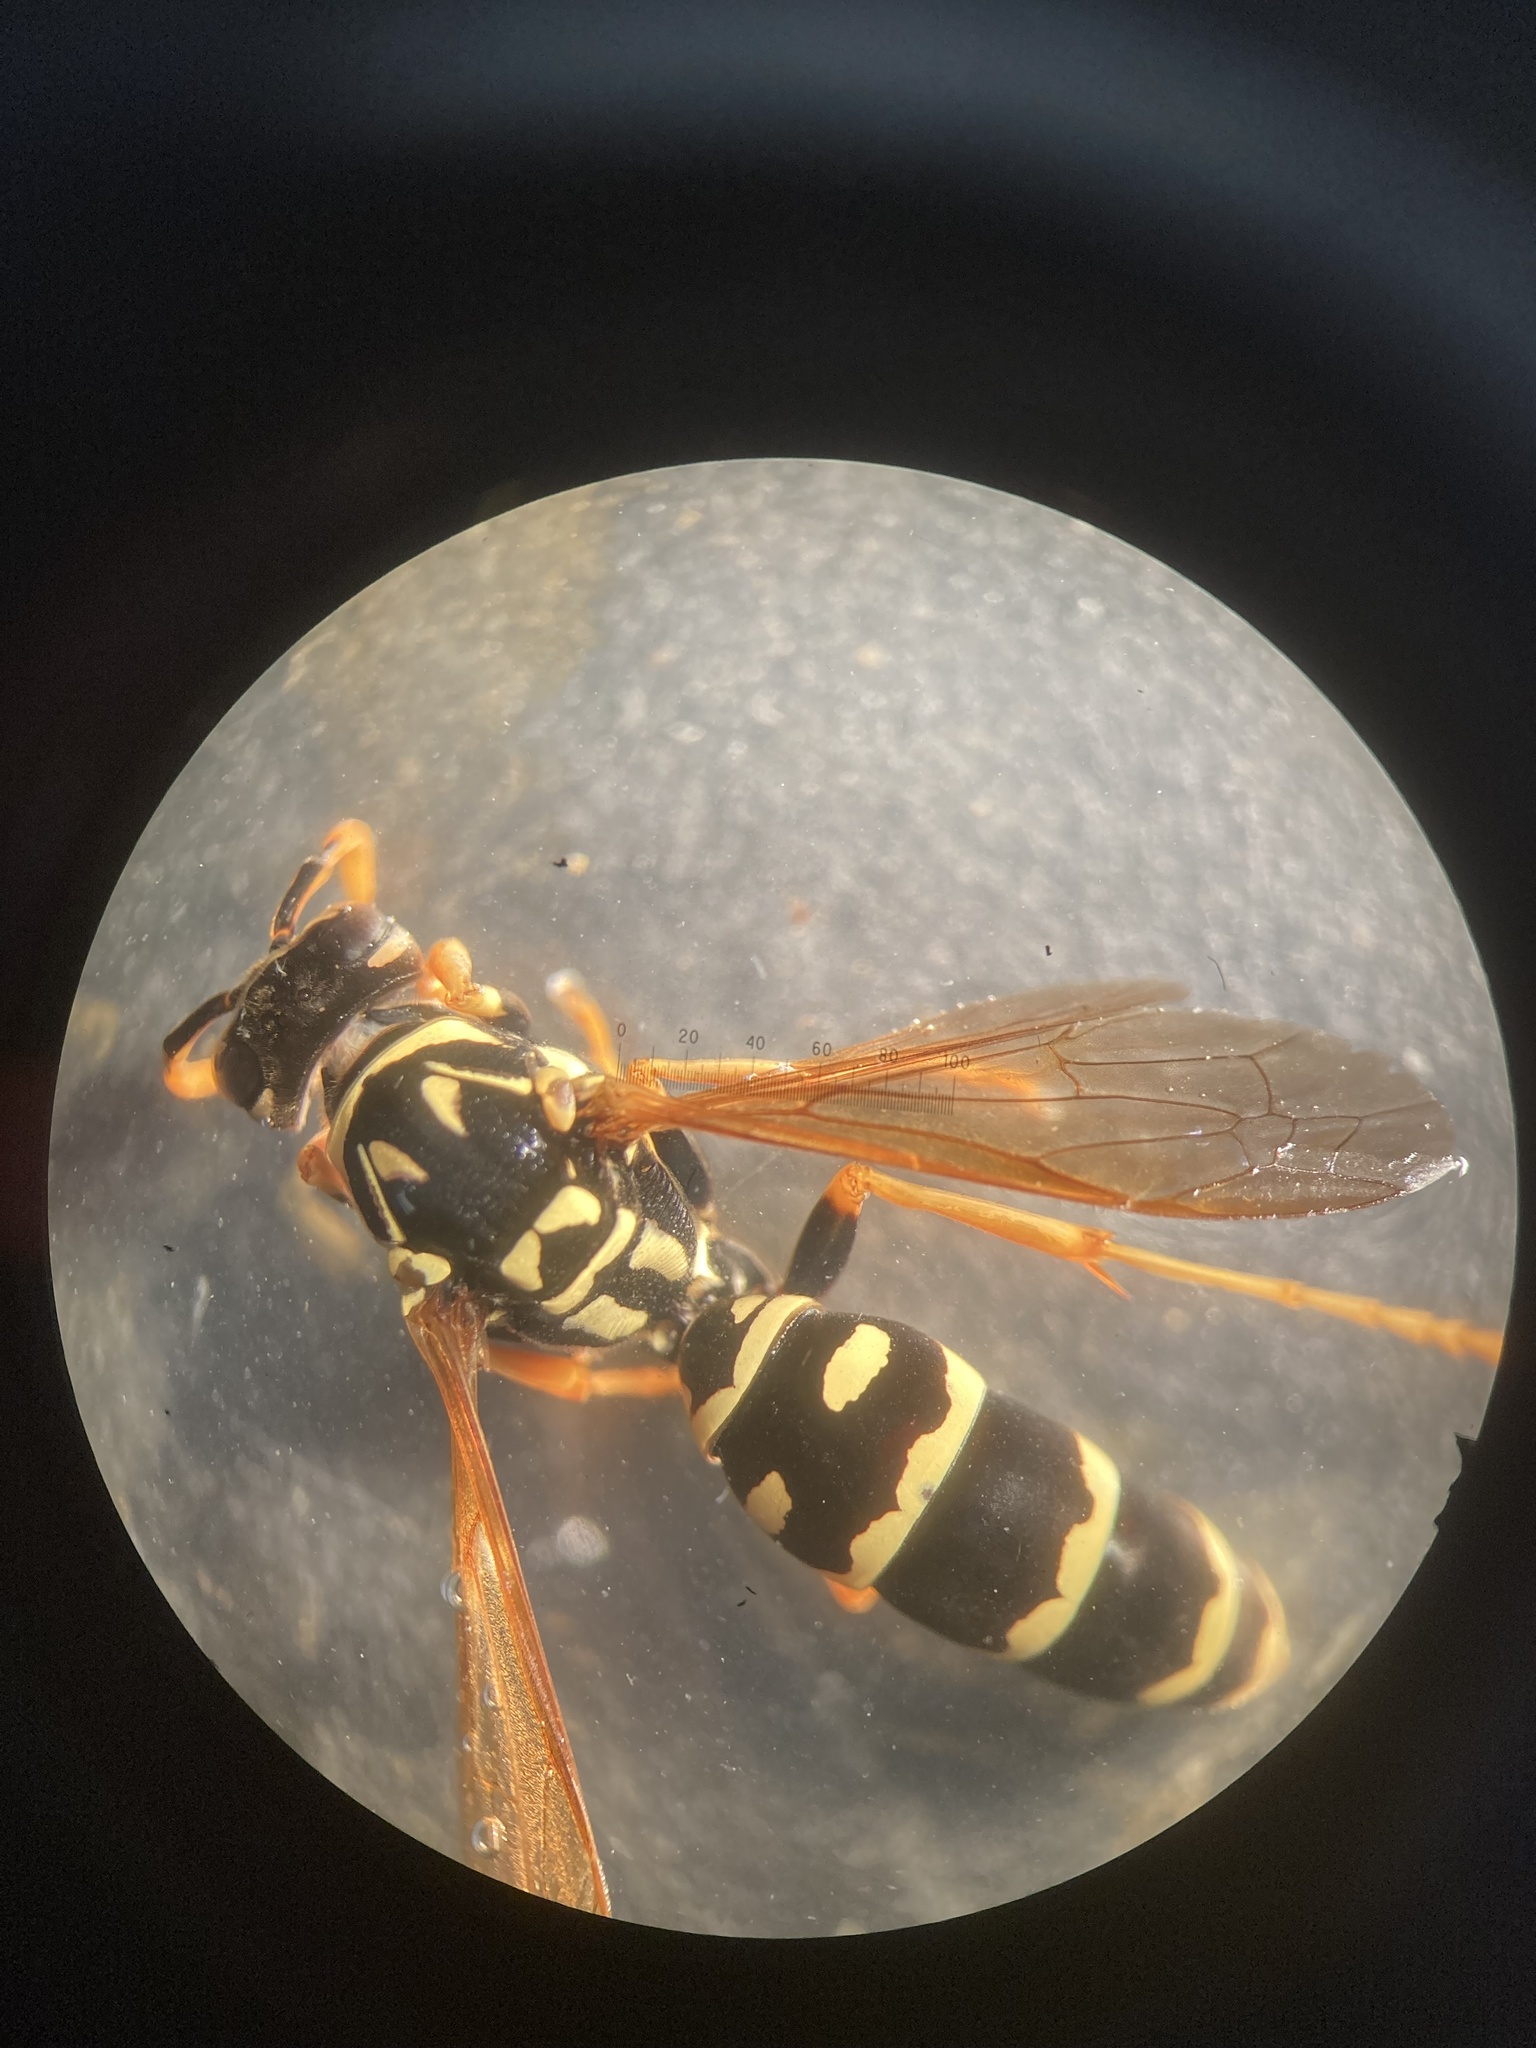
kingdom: Animalia
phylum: Arthropoda
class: Insecta
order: Hymenoptera
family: Eumenidae
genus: Polistes
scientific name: Polistes dominula
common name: Paper wasp
